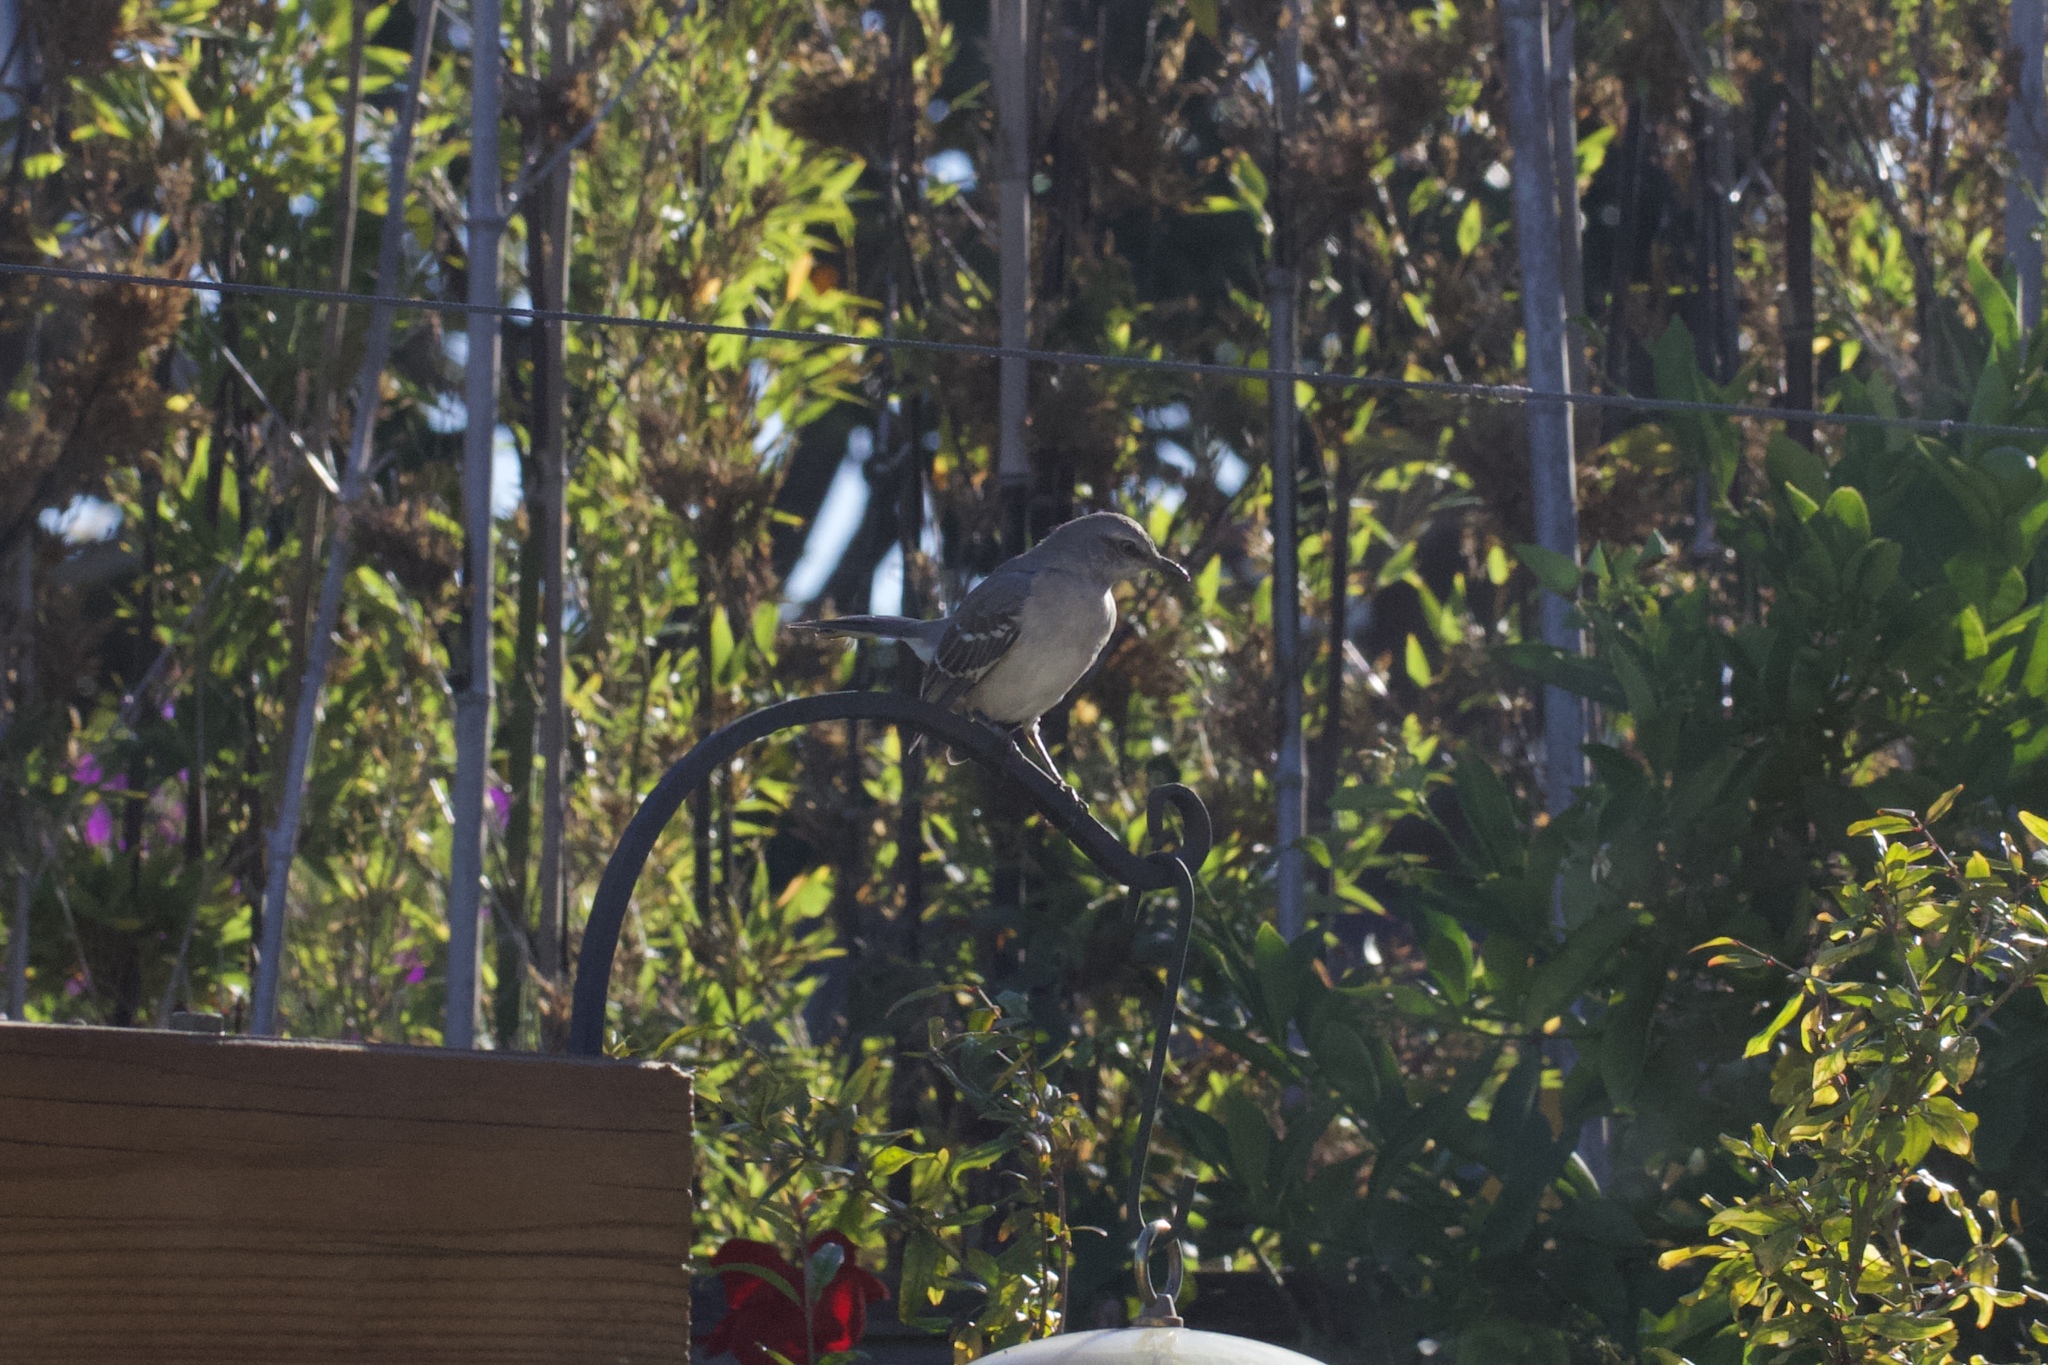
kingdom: Animalia
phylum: Chordata
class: Aves
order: Passeriformes
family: Mimidae
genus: Mimus
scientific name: Mimus polyglottos
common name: Northern mockingbird
